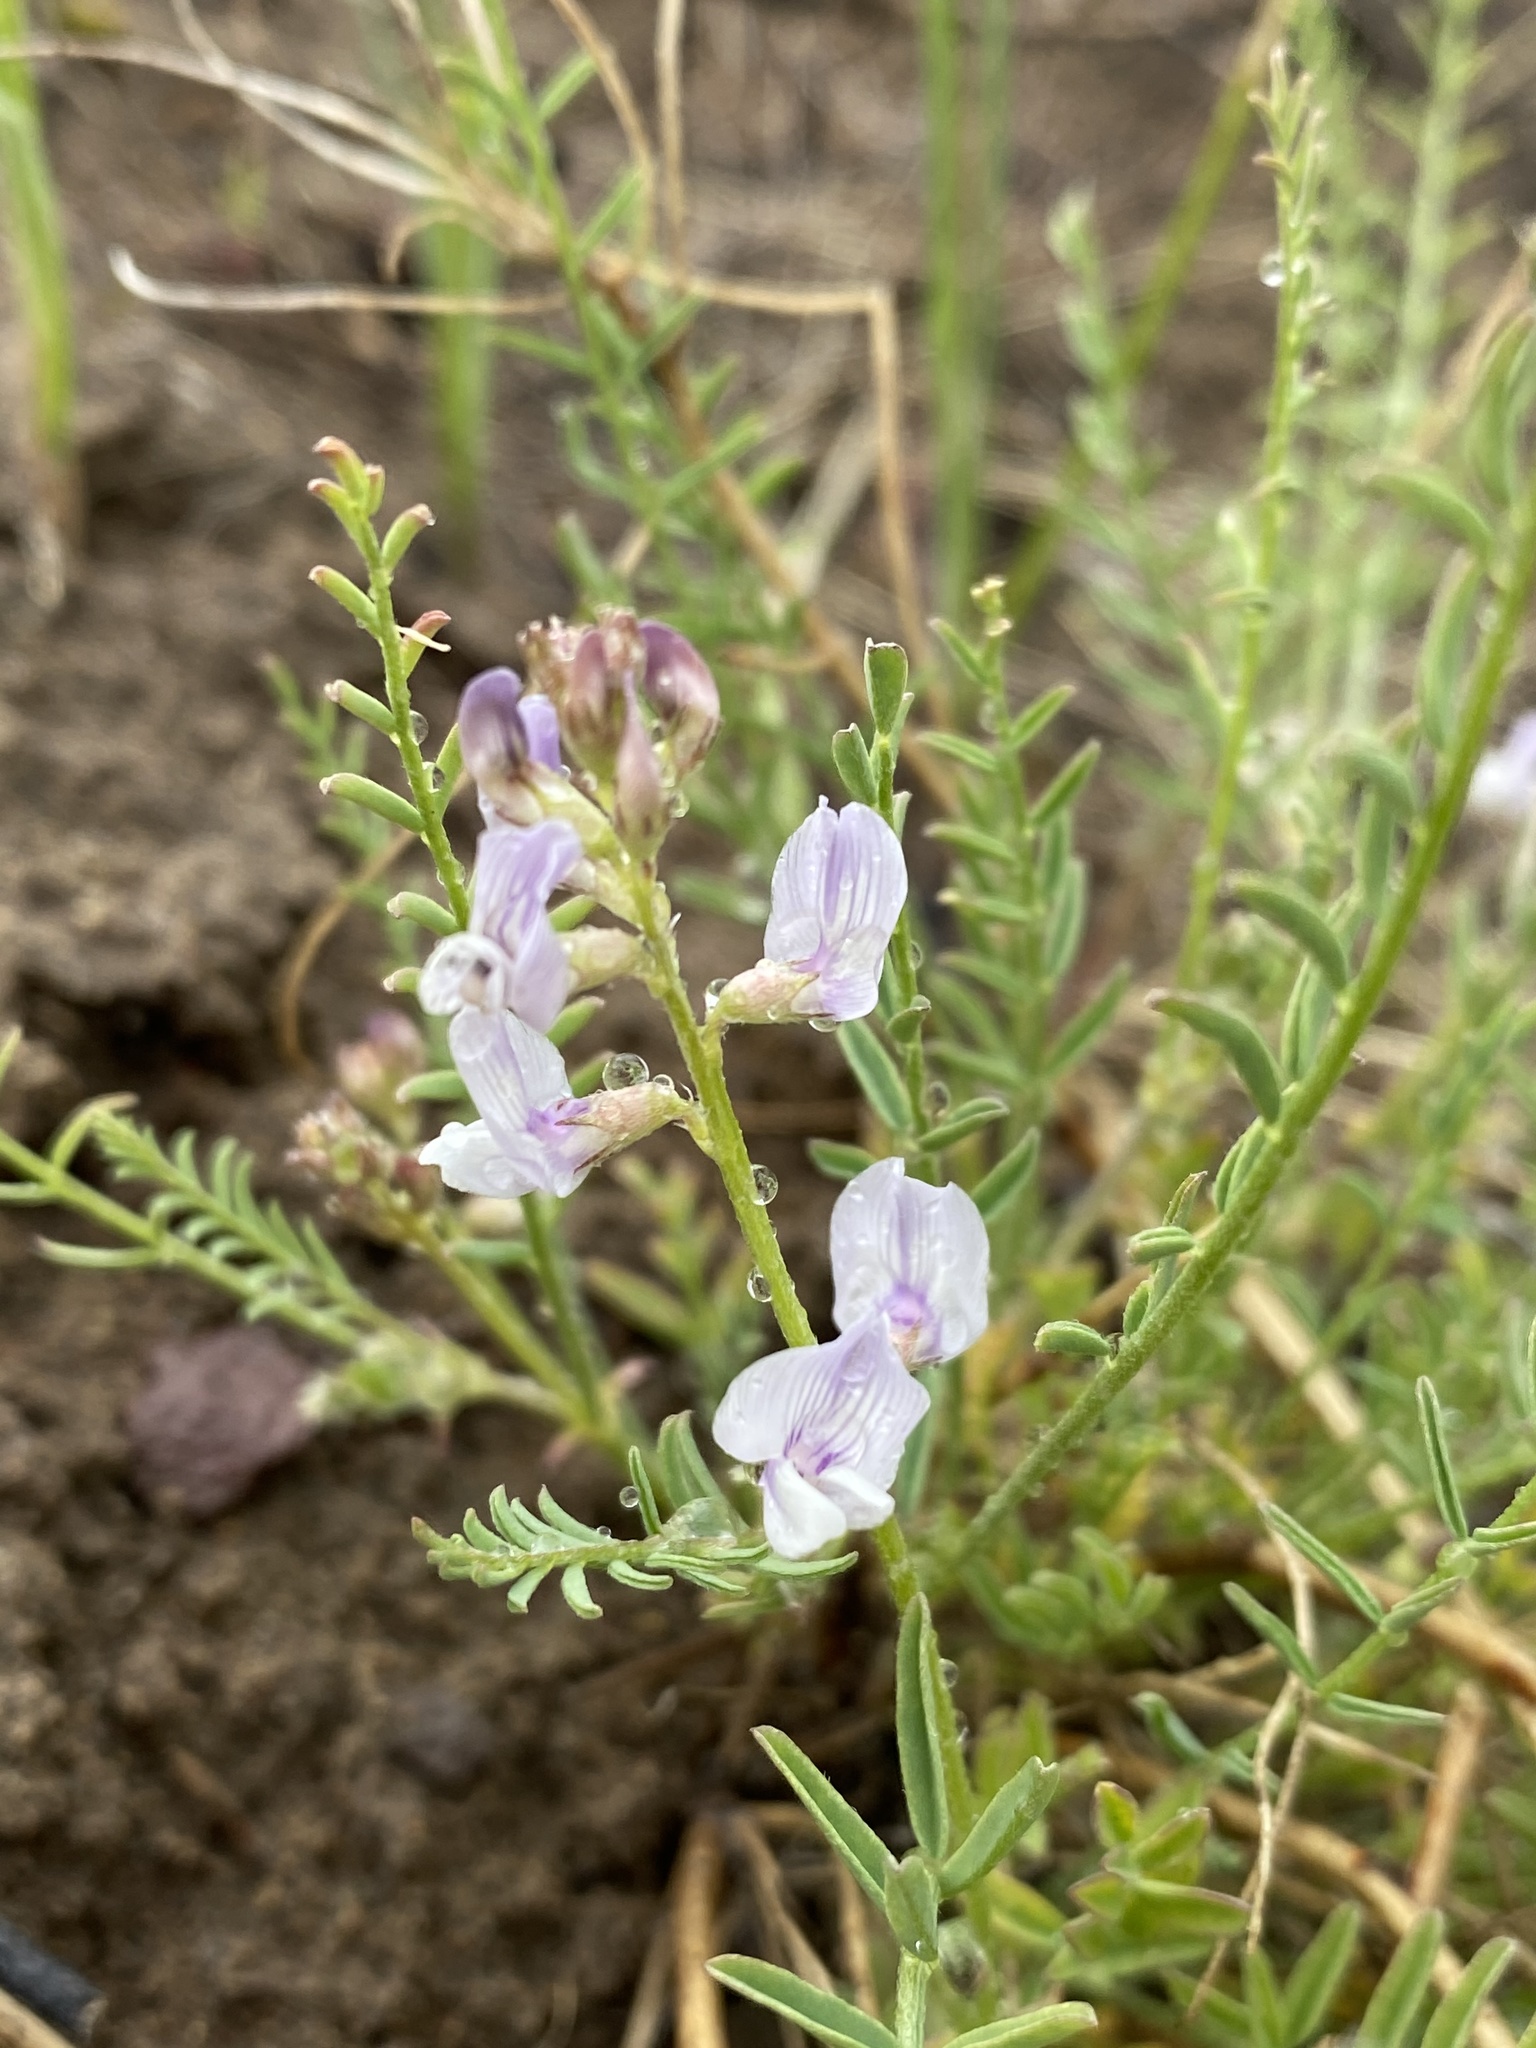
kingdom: Plantae
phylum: Tracheophyta
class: Magnoliopsida
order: Fabales
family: Fabaceae
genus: Astragalus
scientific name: Astragalus mulfordiae
